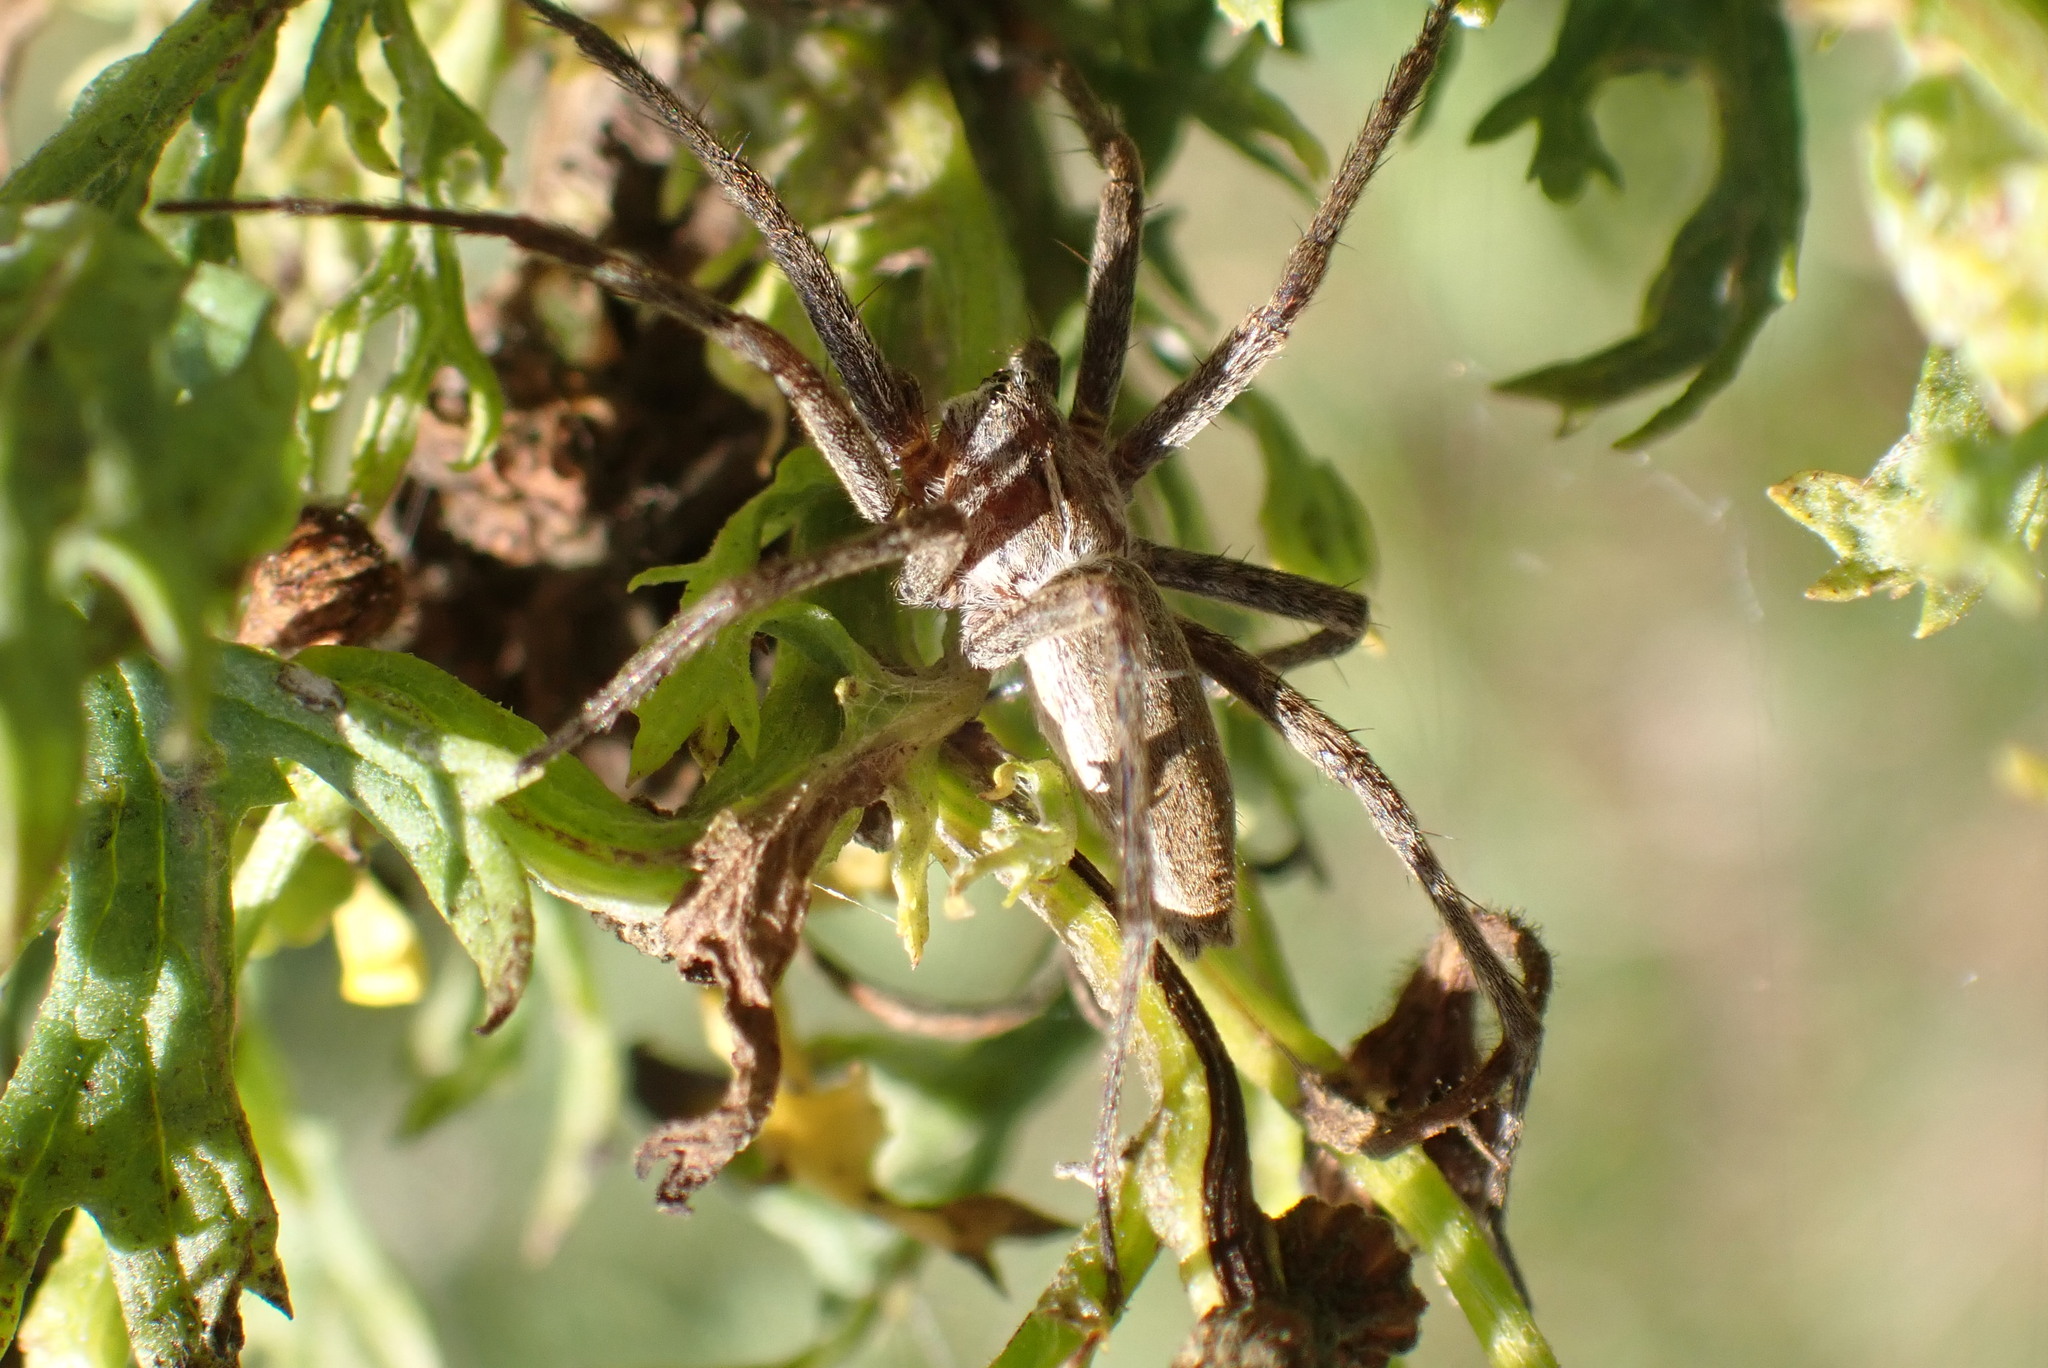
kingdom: Animalia
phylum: Arthropoda
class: Arachnida
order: Araneae
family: Pisauridae
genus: Pisaura
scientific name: Pisaura mirabilis
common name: Tent spider
